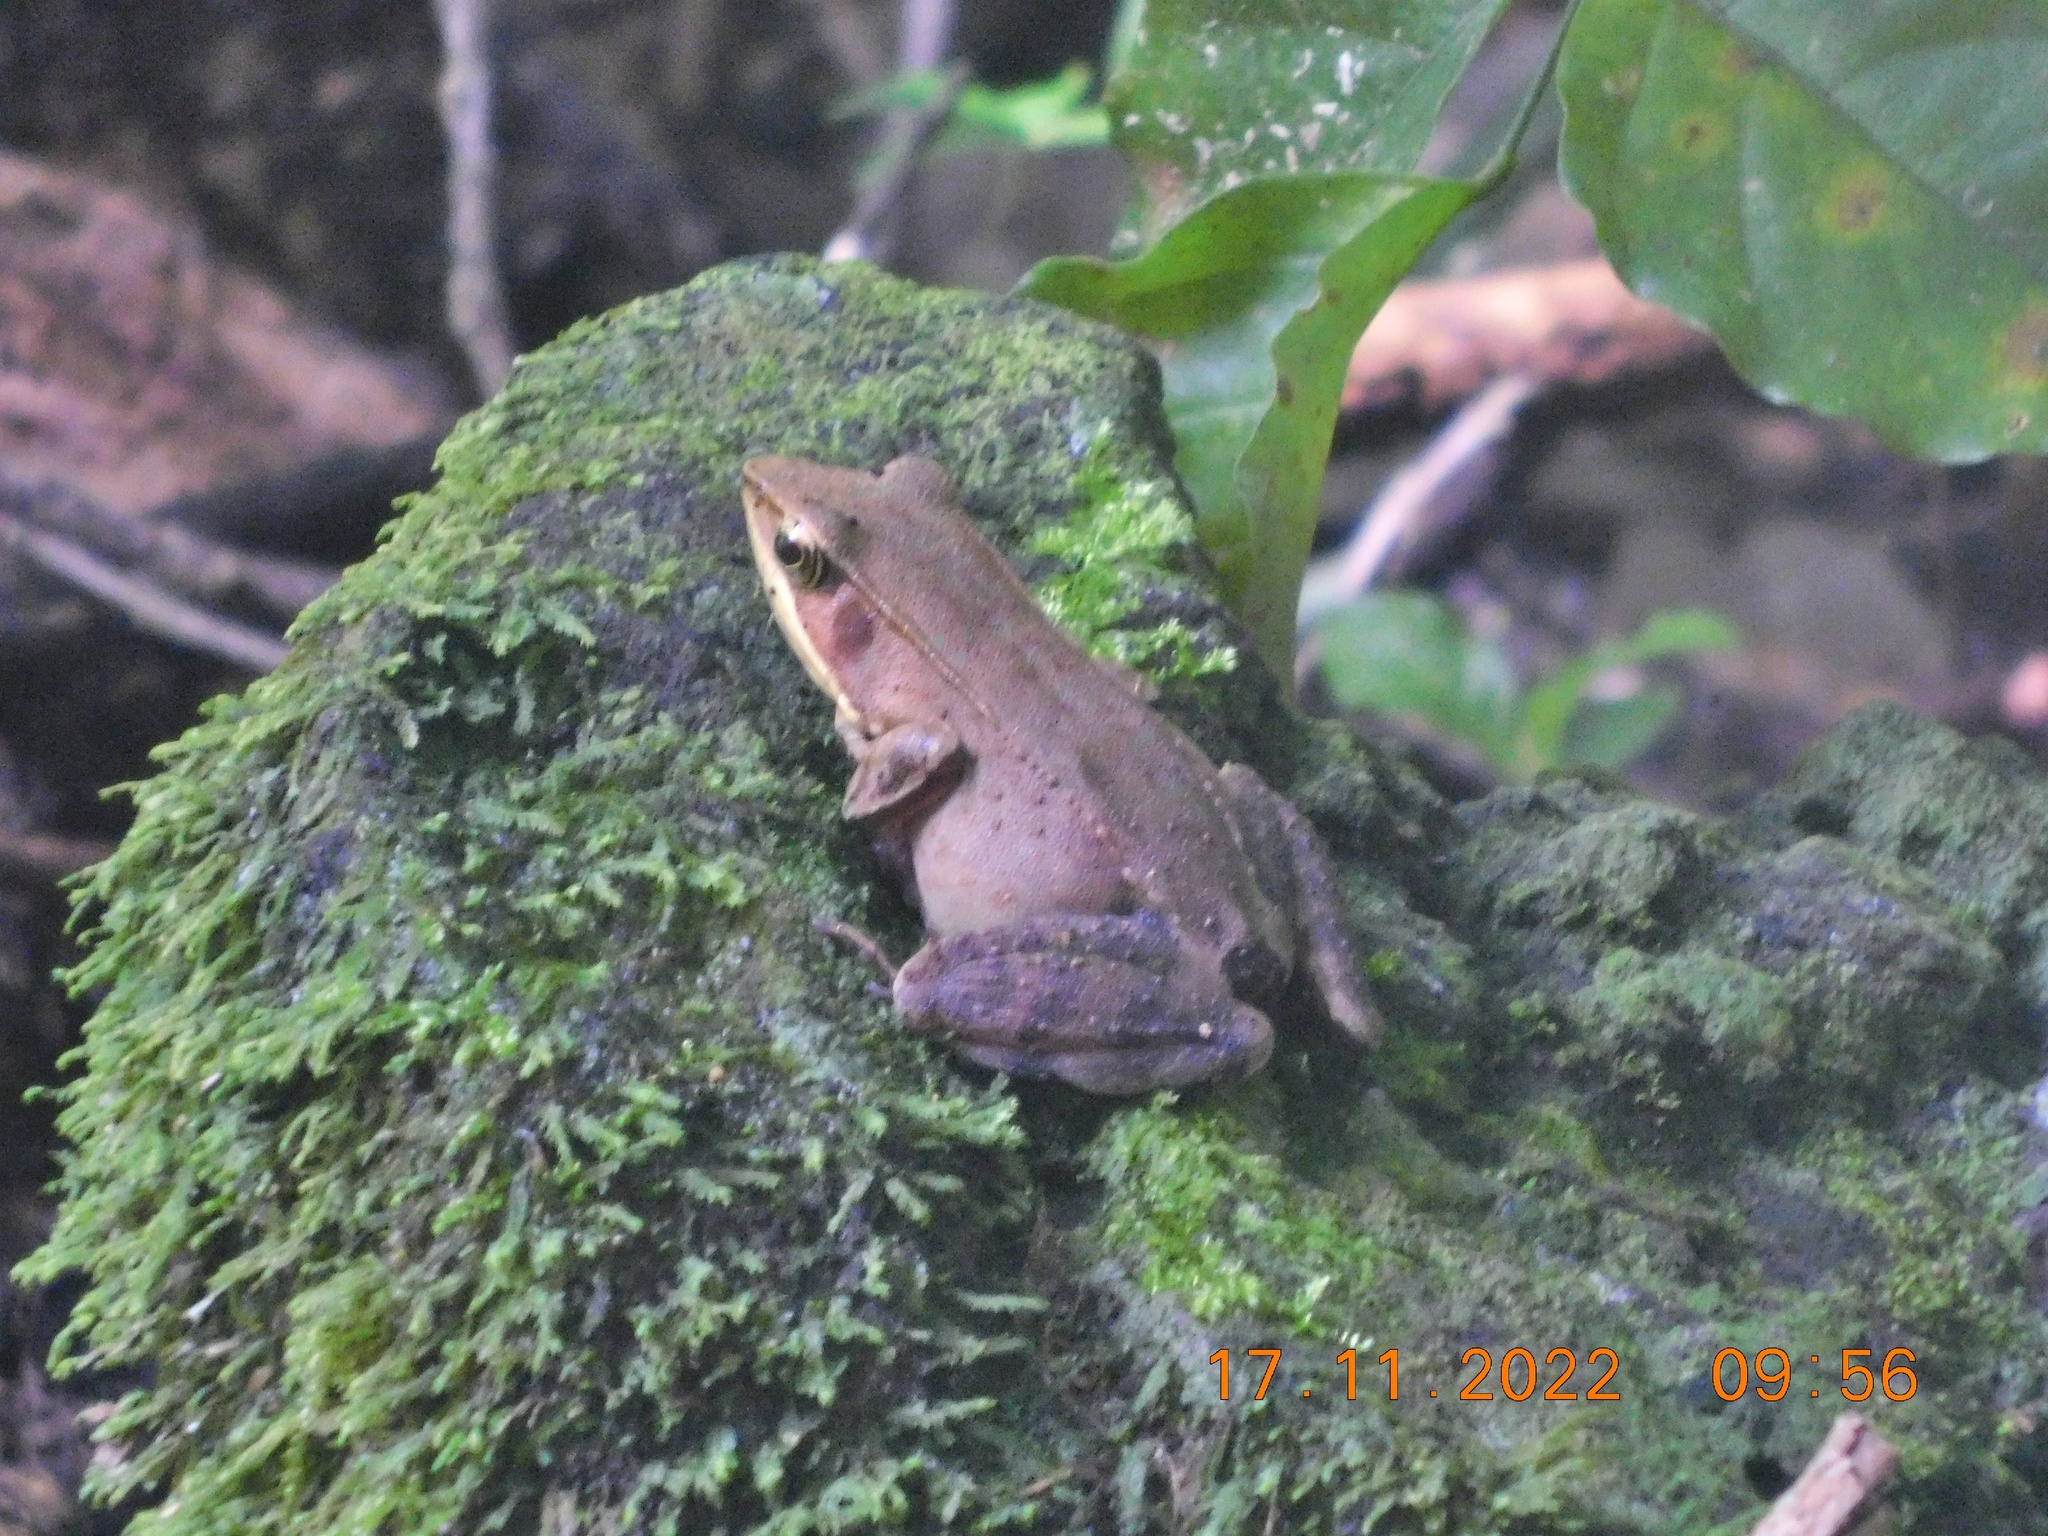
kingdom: Animalia
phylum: Chordata
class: Amphibia
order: Anura
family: Ranidae
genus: Lithobates
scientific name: Lithobates warszewitschii
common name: Warszewitsch's frog
